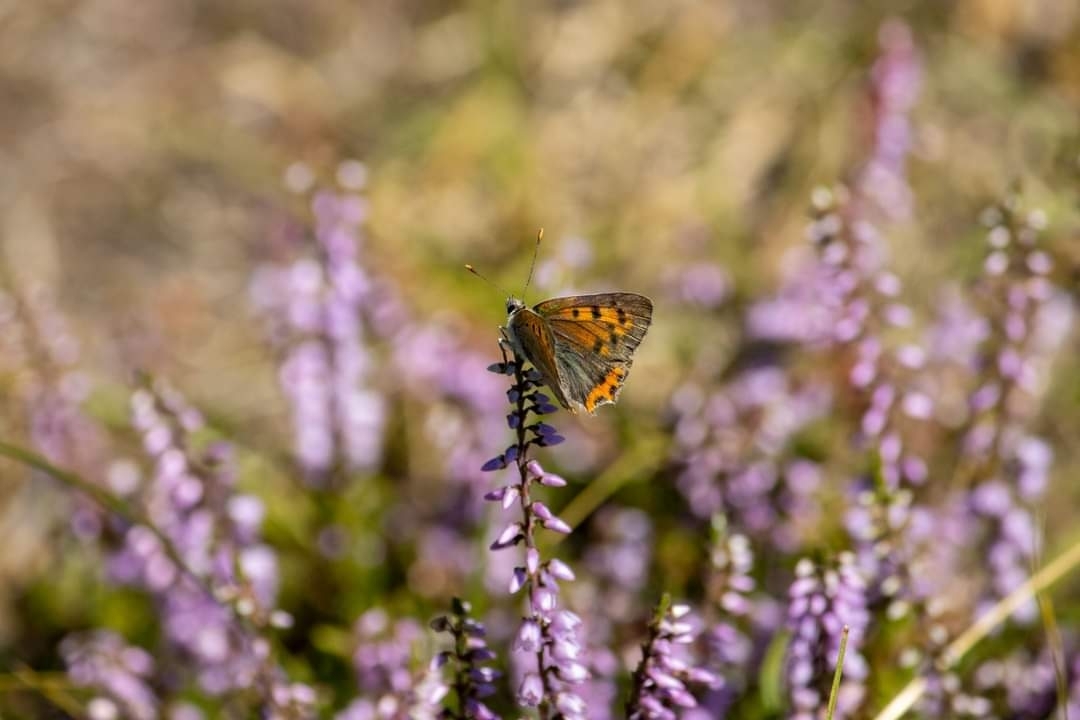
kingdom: Animalia
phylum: Arthropoda
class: Insecta
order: Lepidoptera
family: Lycaenidae
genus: Lycaena
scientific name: Lycaena phlaeas
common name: Small copper
